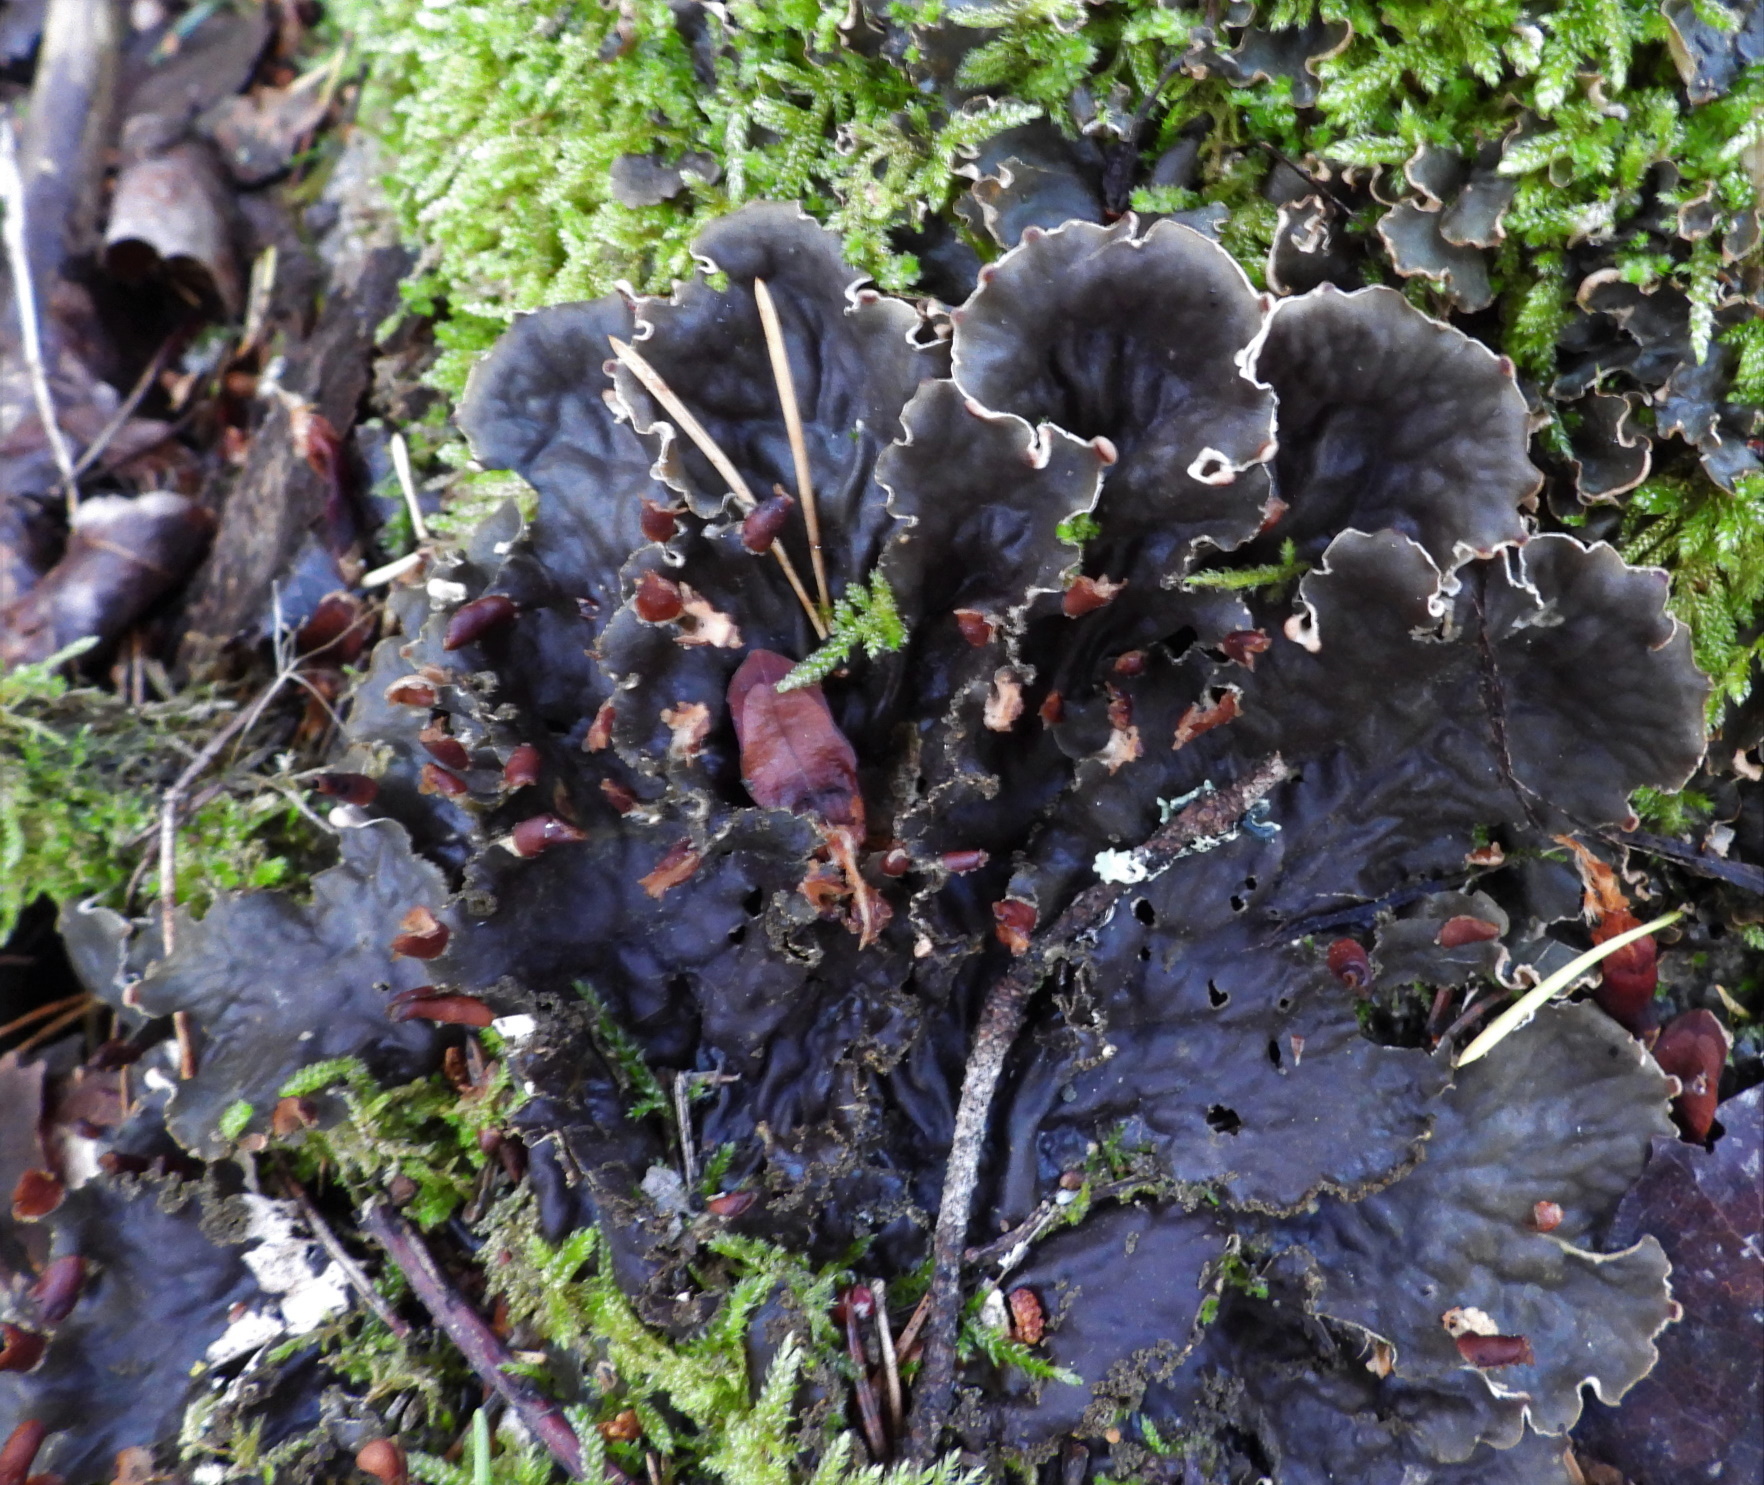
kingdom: Fungi
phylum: Ascomycota
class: Lecanoromycetes
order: Peltigerales
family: Peltigeraceae
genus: Peltigera
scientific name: Peltigera praetextata
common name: Scaly dog-lichen
